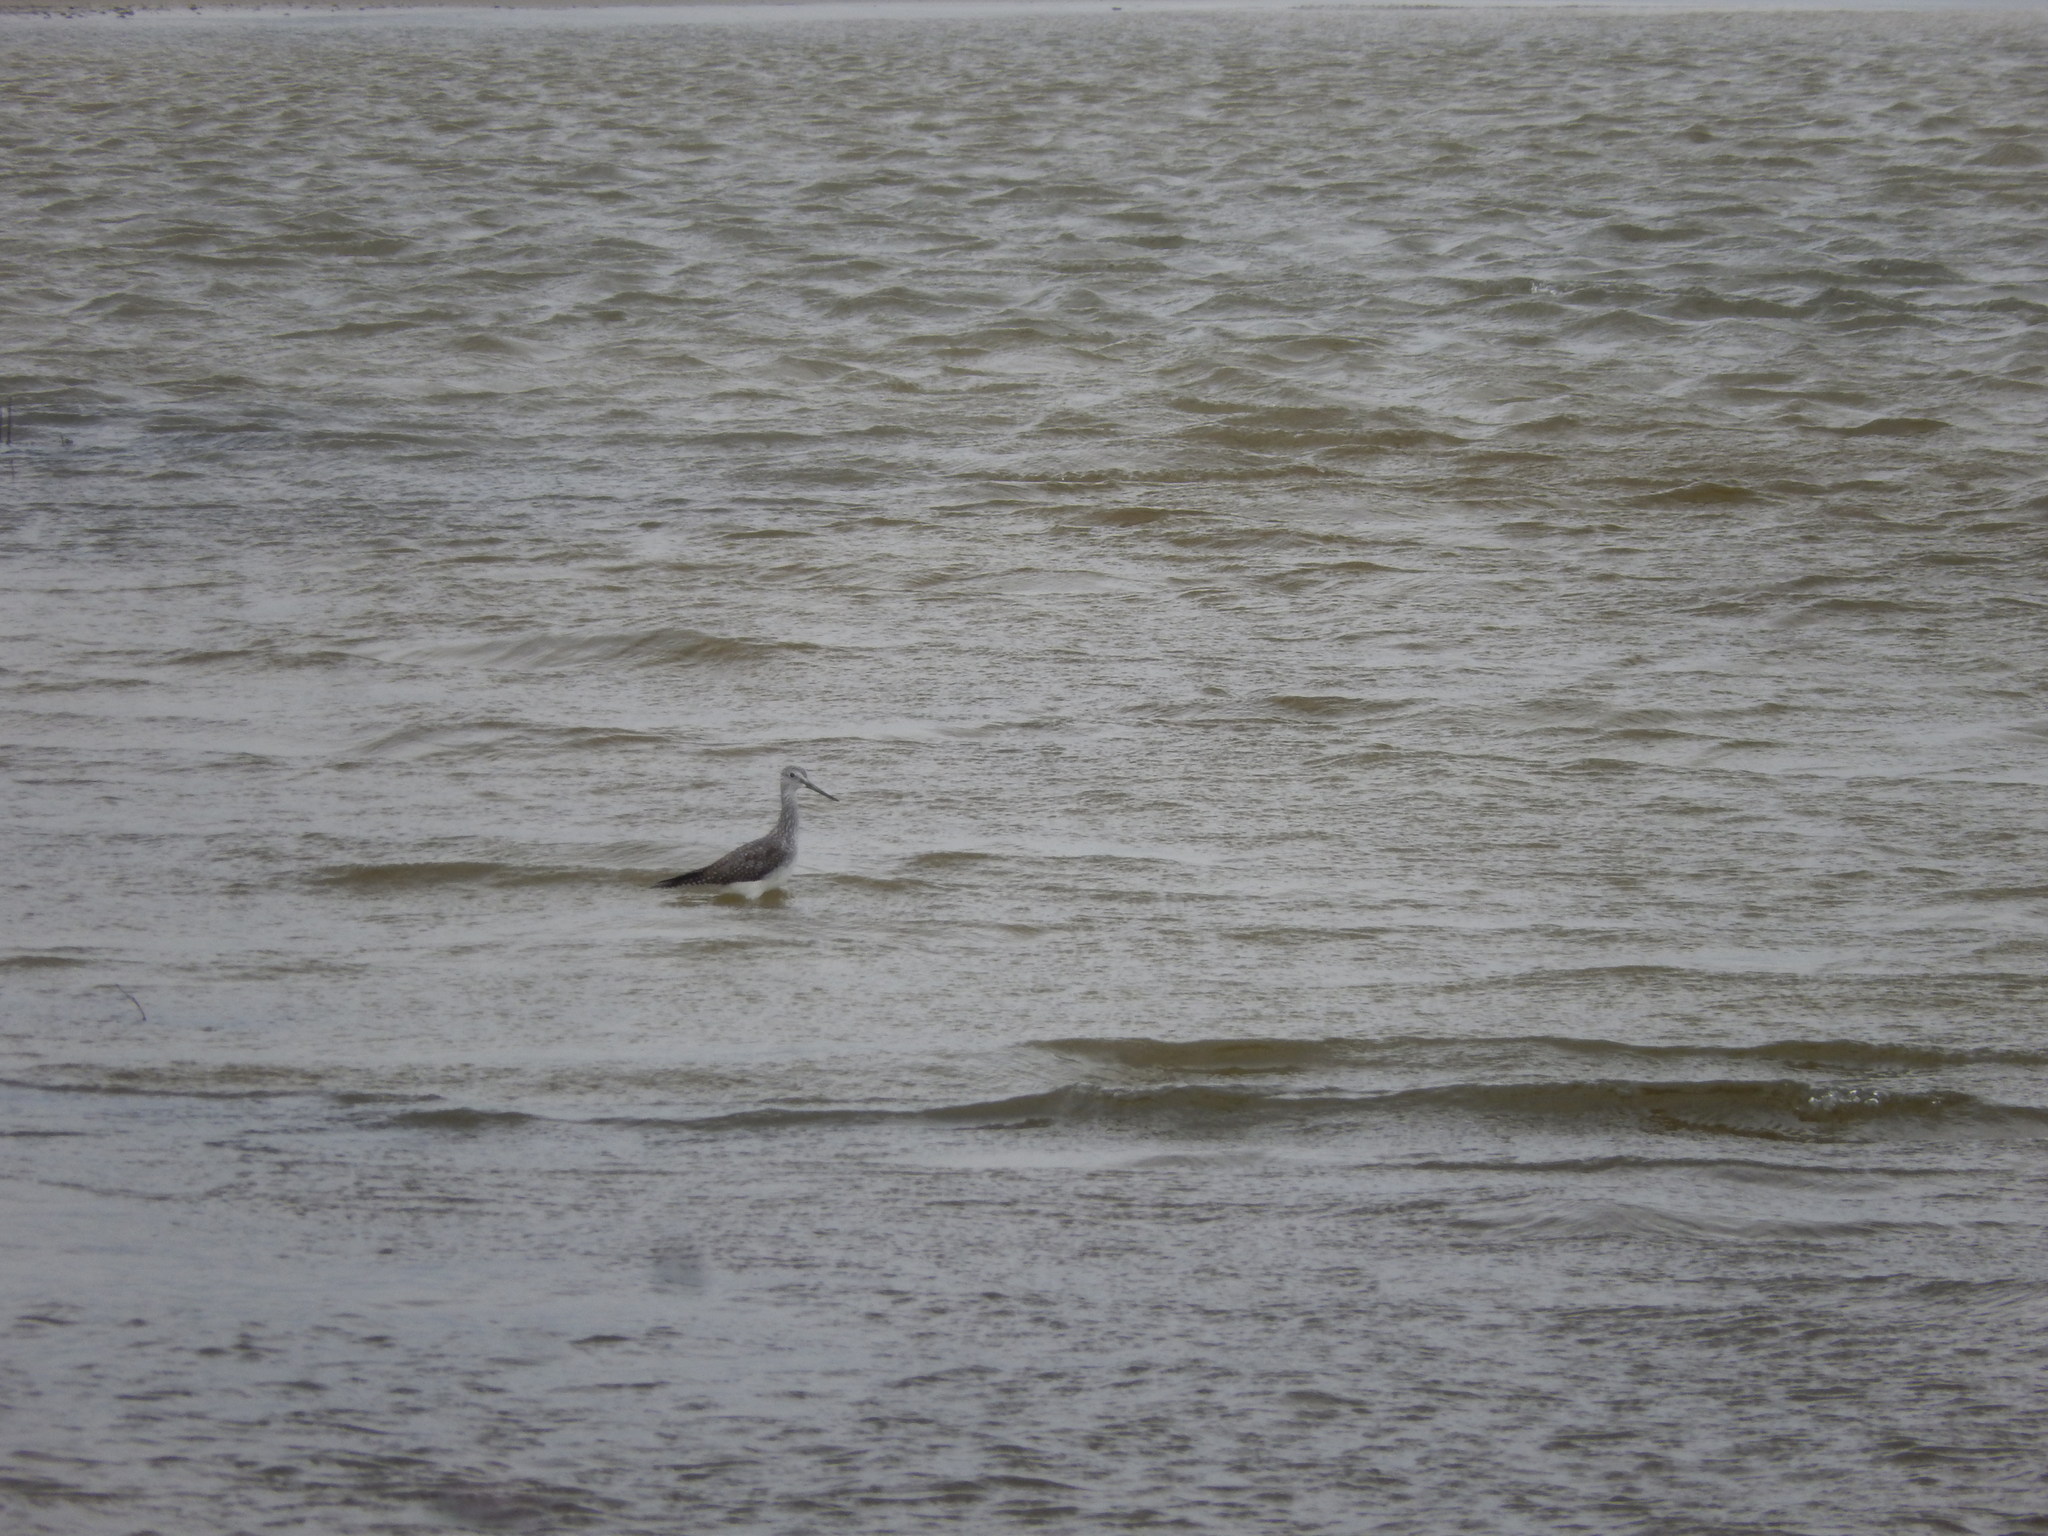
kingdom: Animalia
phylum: Chordata
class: Aves
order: Charadriiformes
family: Scolopacidae
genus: Tringa
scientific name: Tringa melanoleuca
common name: Greater yellowlegs
